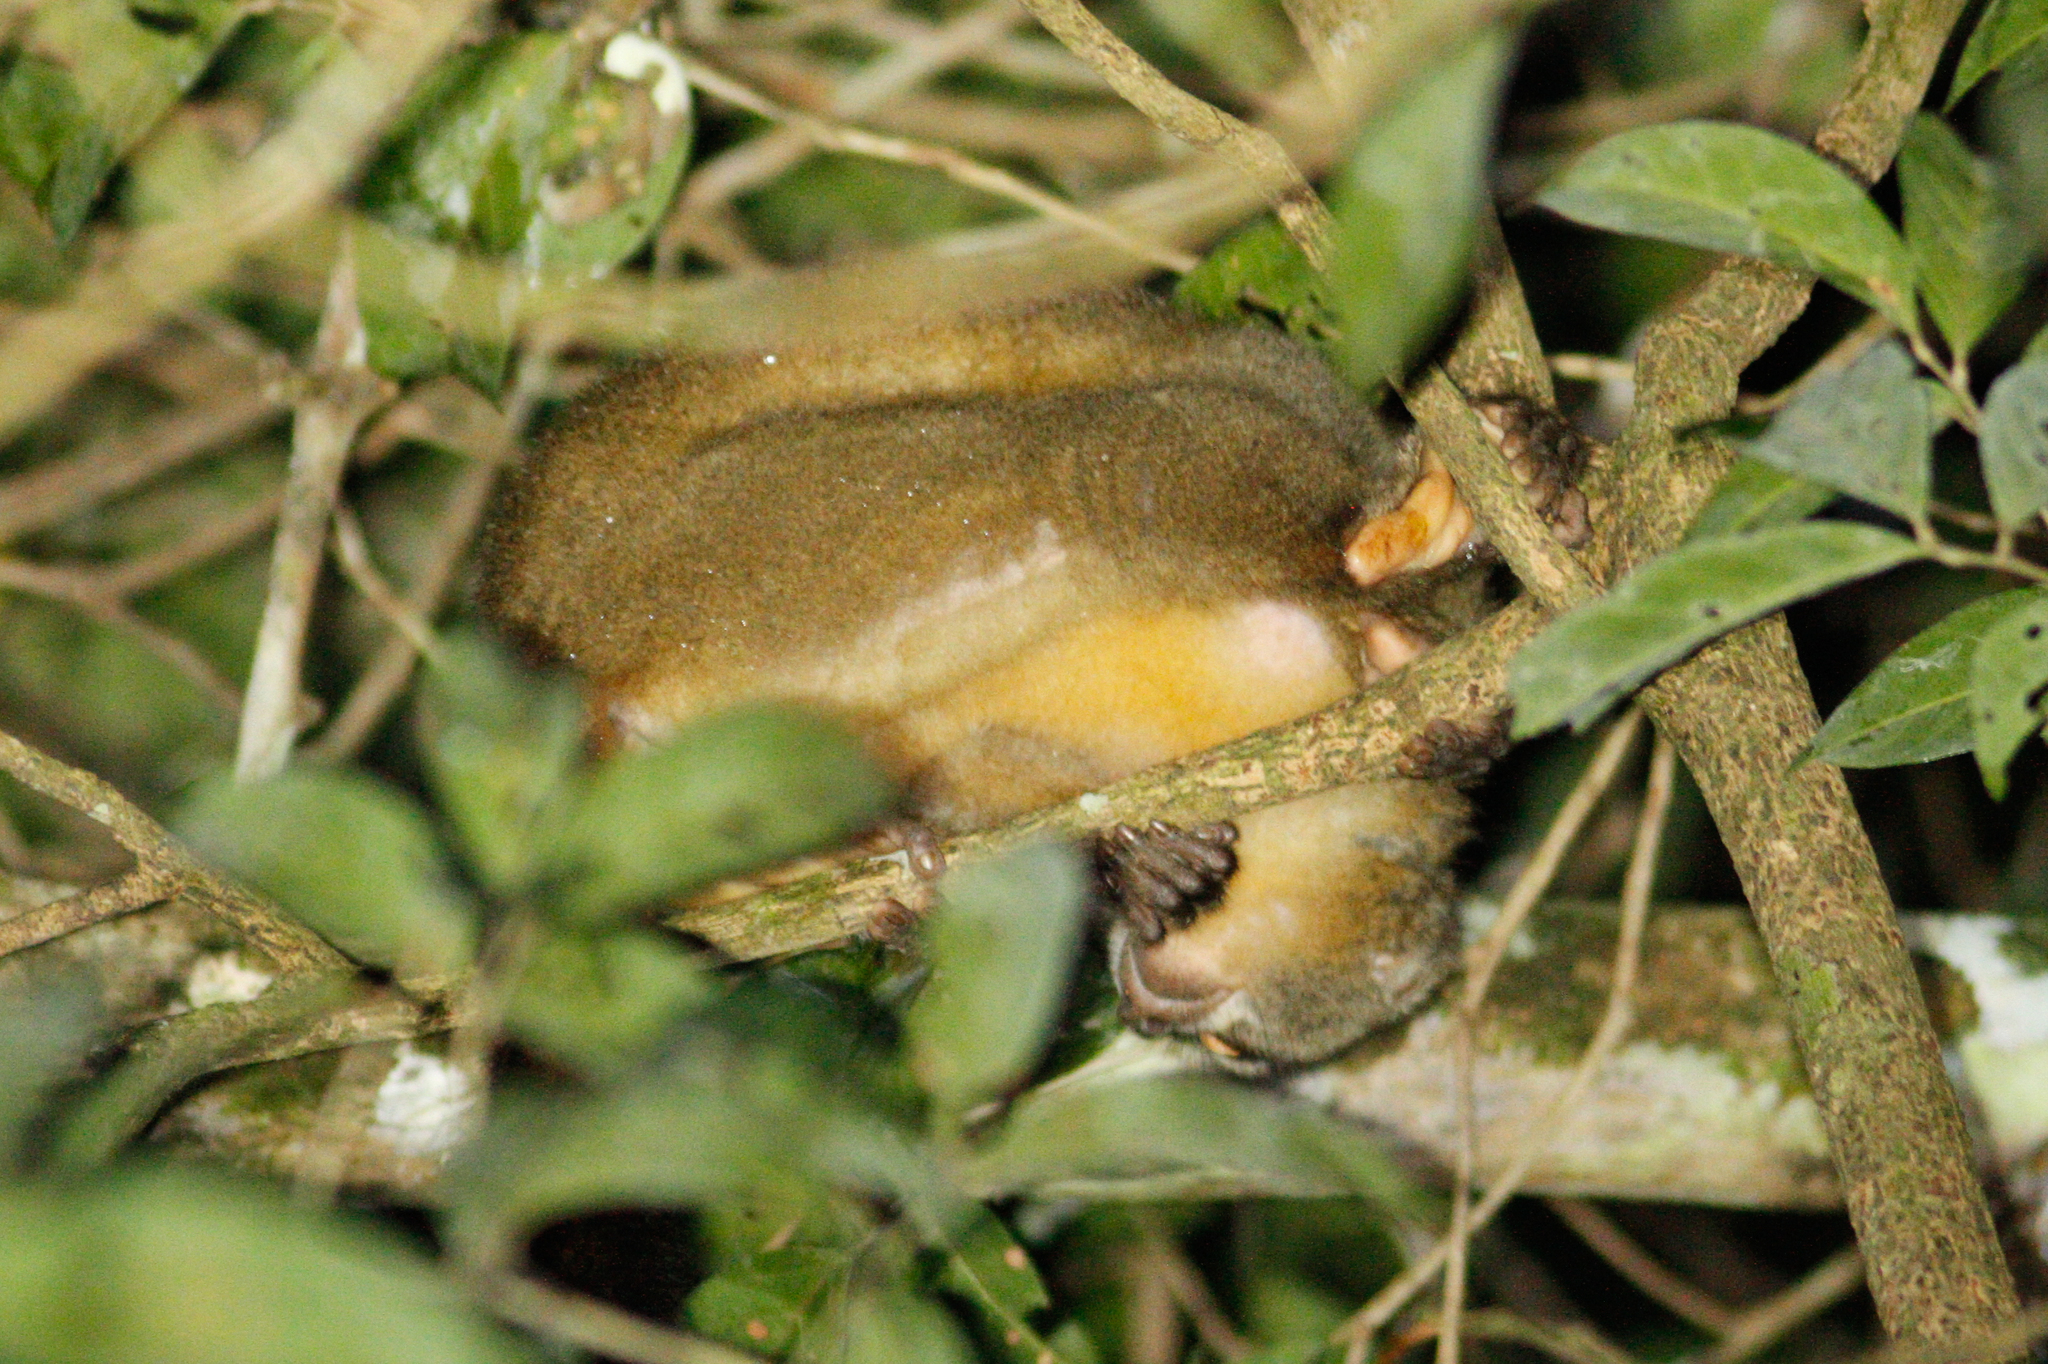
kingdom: Animalia
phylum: Chordata
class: Mammalia
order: Primates
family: Aotidae
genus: Aotus
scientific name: Aotus vociferans
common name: Noisy night monkey
